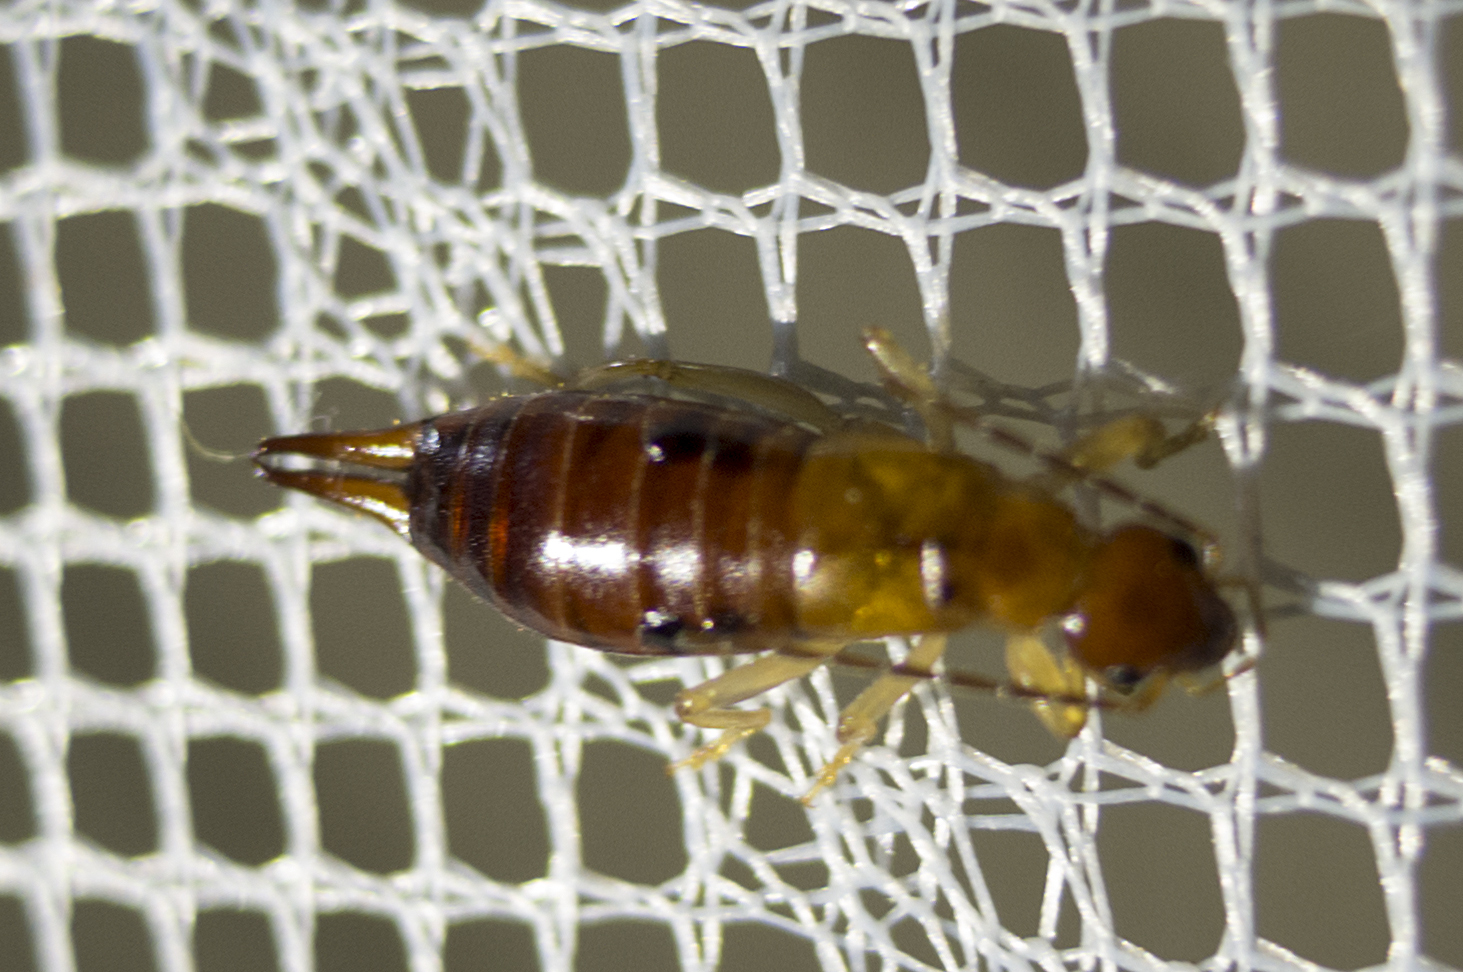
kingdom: Animalia
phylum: Arthropoda
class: Insecta
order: Dermaptera
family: Forficulidae
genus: Apterygida
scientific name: Apterygida albipennis
